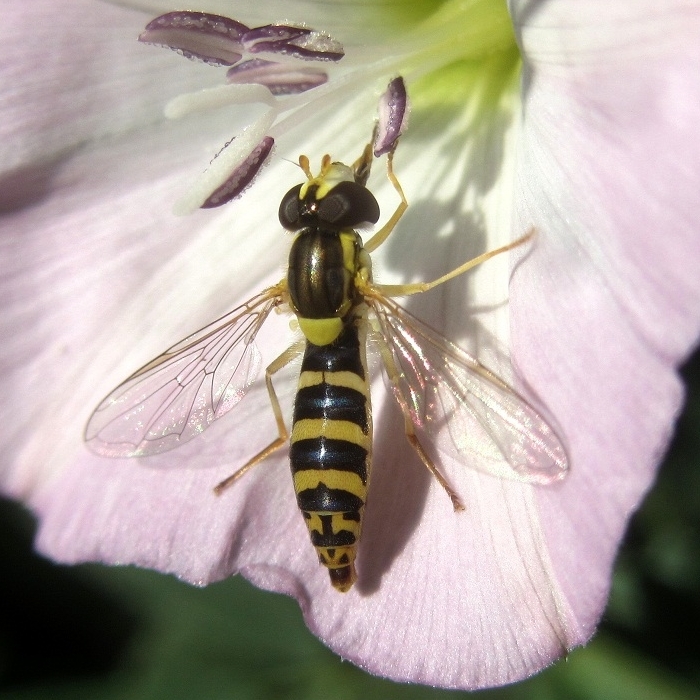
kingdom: Animalia
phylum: Arthropoda
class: Insecta
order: Diptera
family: Syrphidae
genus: Sphaerophoria
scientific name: Sphaerophoria
